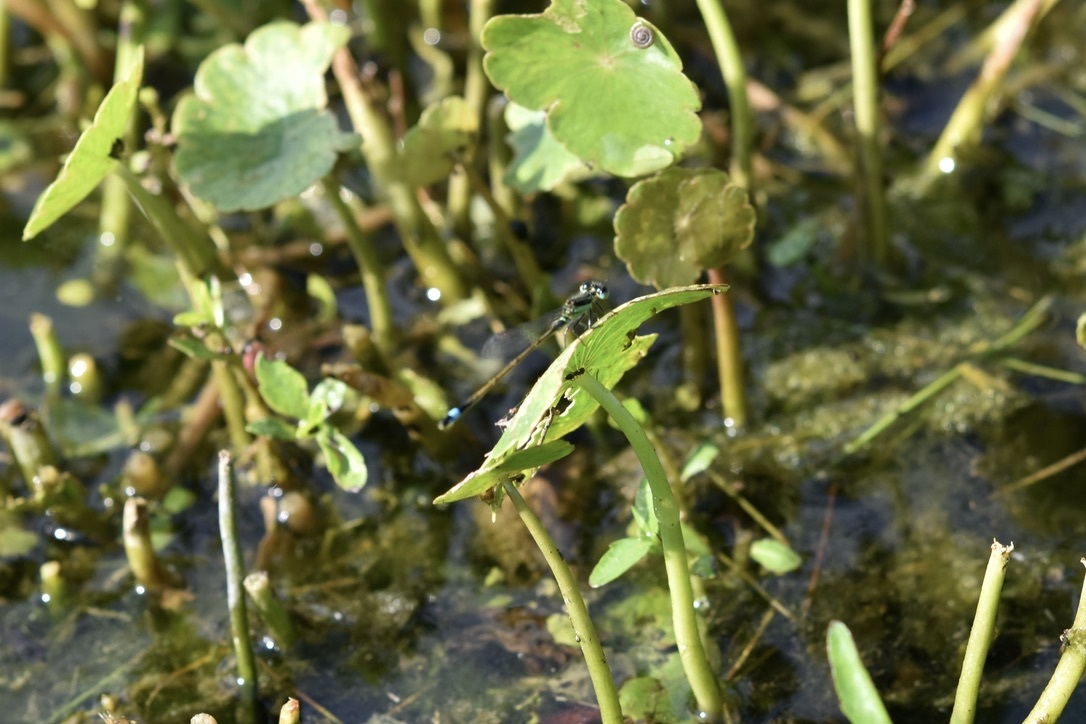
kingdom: Animalia
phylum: Arthropoda
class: Insecta
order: Odonata
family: Coenagrionidae
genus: Ischnura
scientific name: Ischnura ramburii
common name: Rambur's forktail
